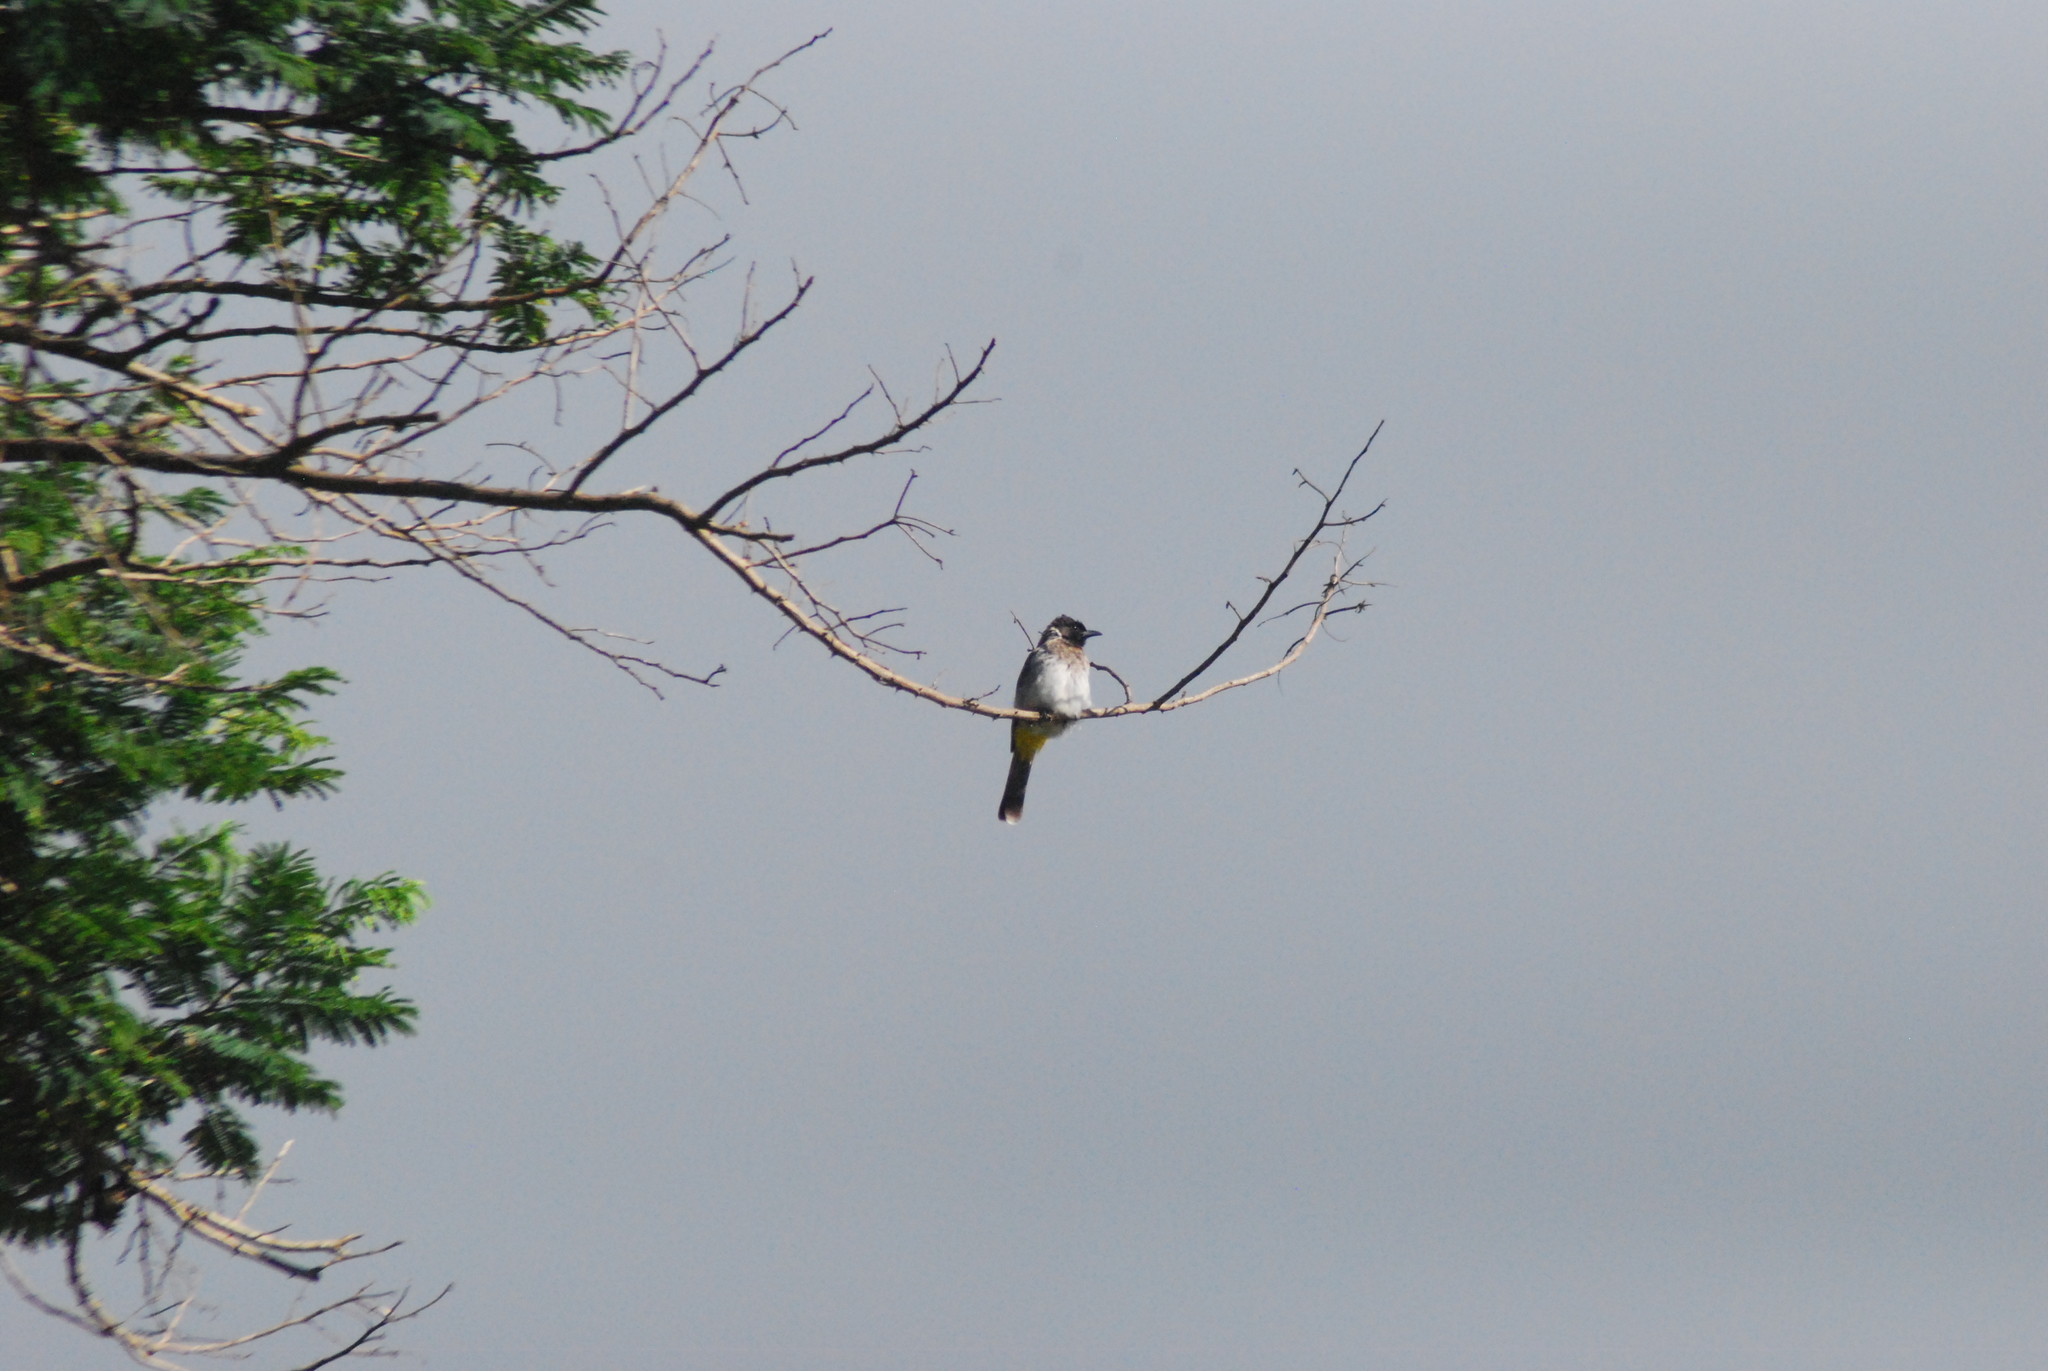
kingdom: Animalia
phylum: Chordata
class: Aves
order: Passeriformes
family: Pycnonotidae
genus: Pycnonotus
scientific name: Pycnonotus barbatus
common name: Common bulbul
